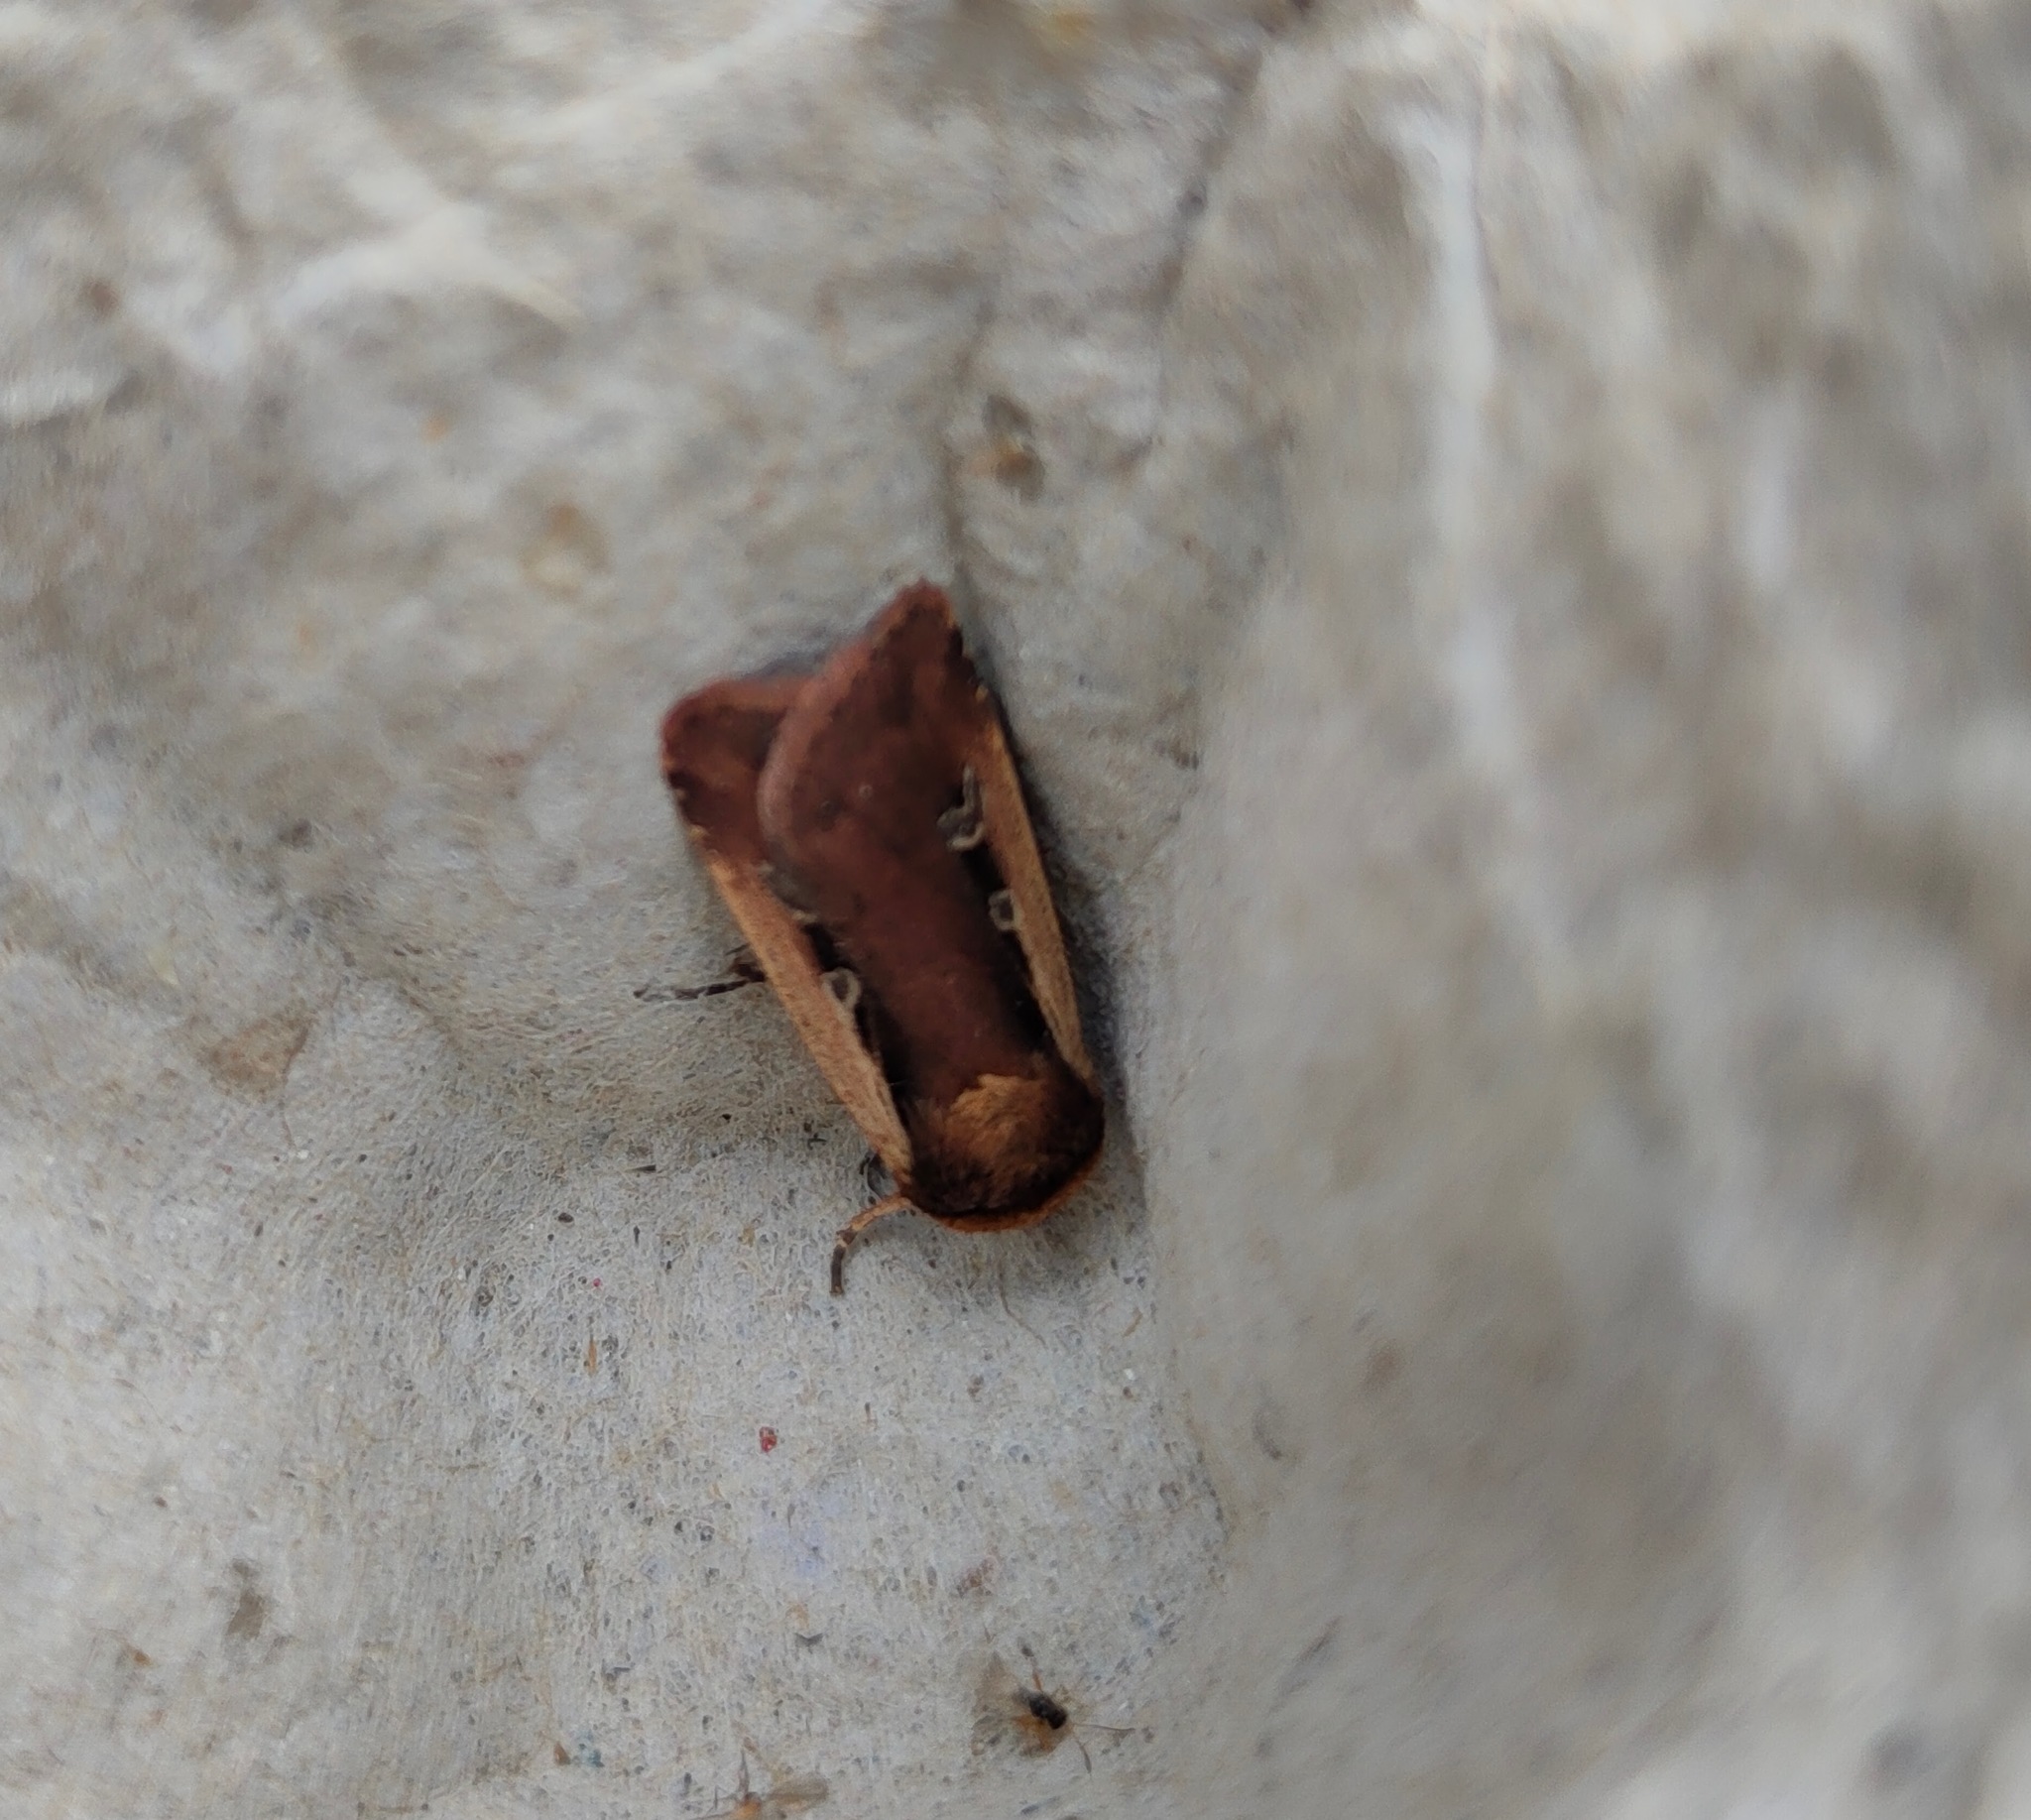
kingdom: Animalia
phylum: Arthropoda
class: Insecta
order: Lepidoptera
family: Noctuidae
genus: Ochropleura
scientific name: Ochropleura plecta
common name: Flame shoulder
